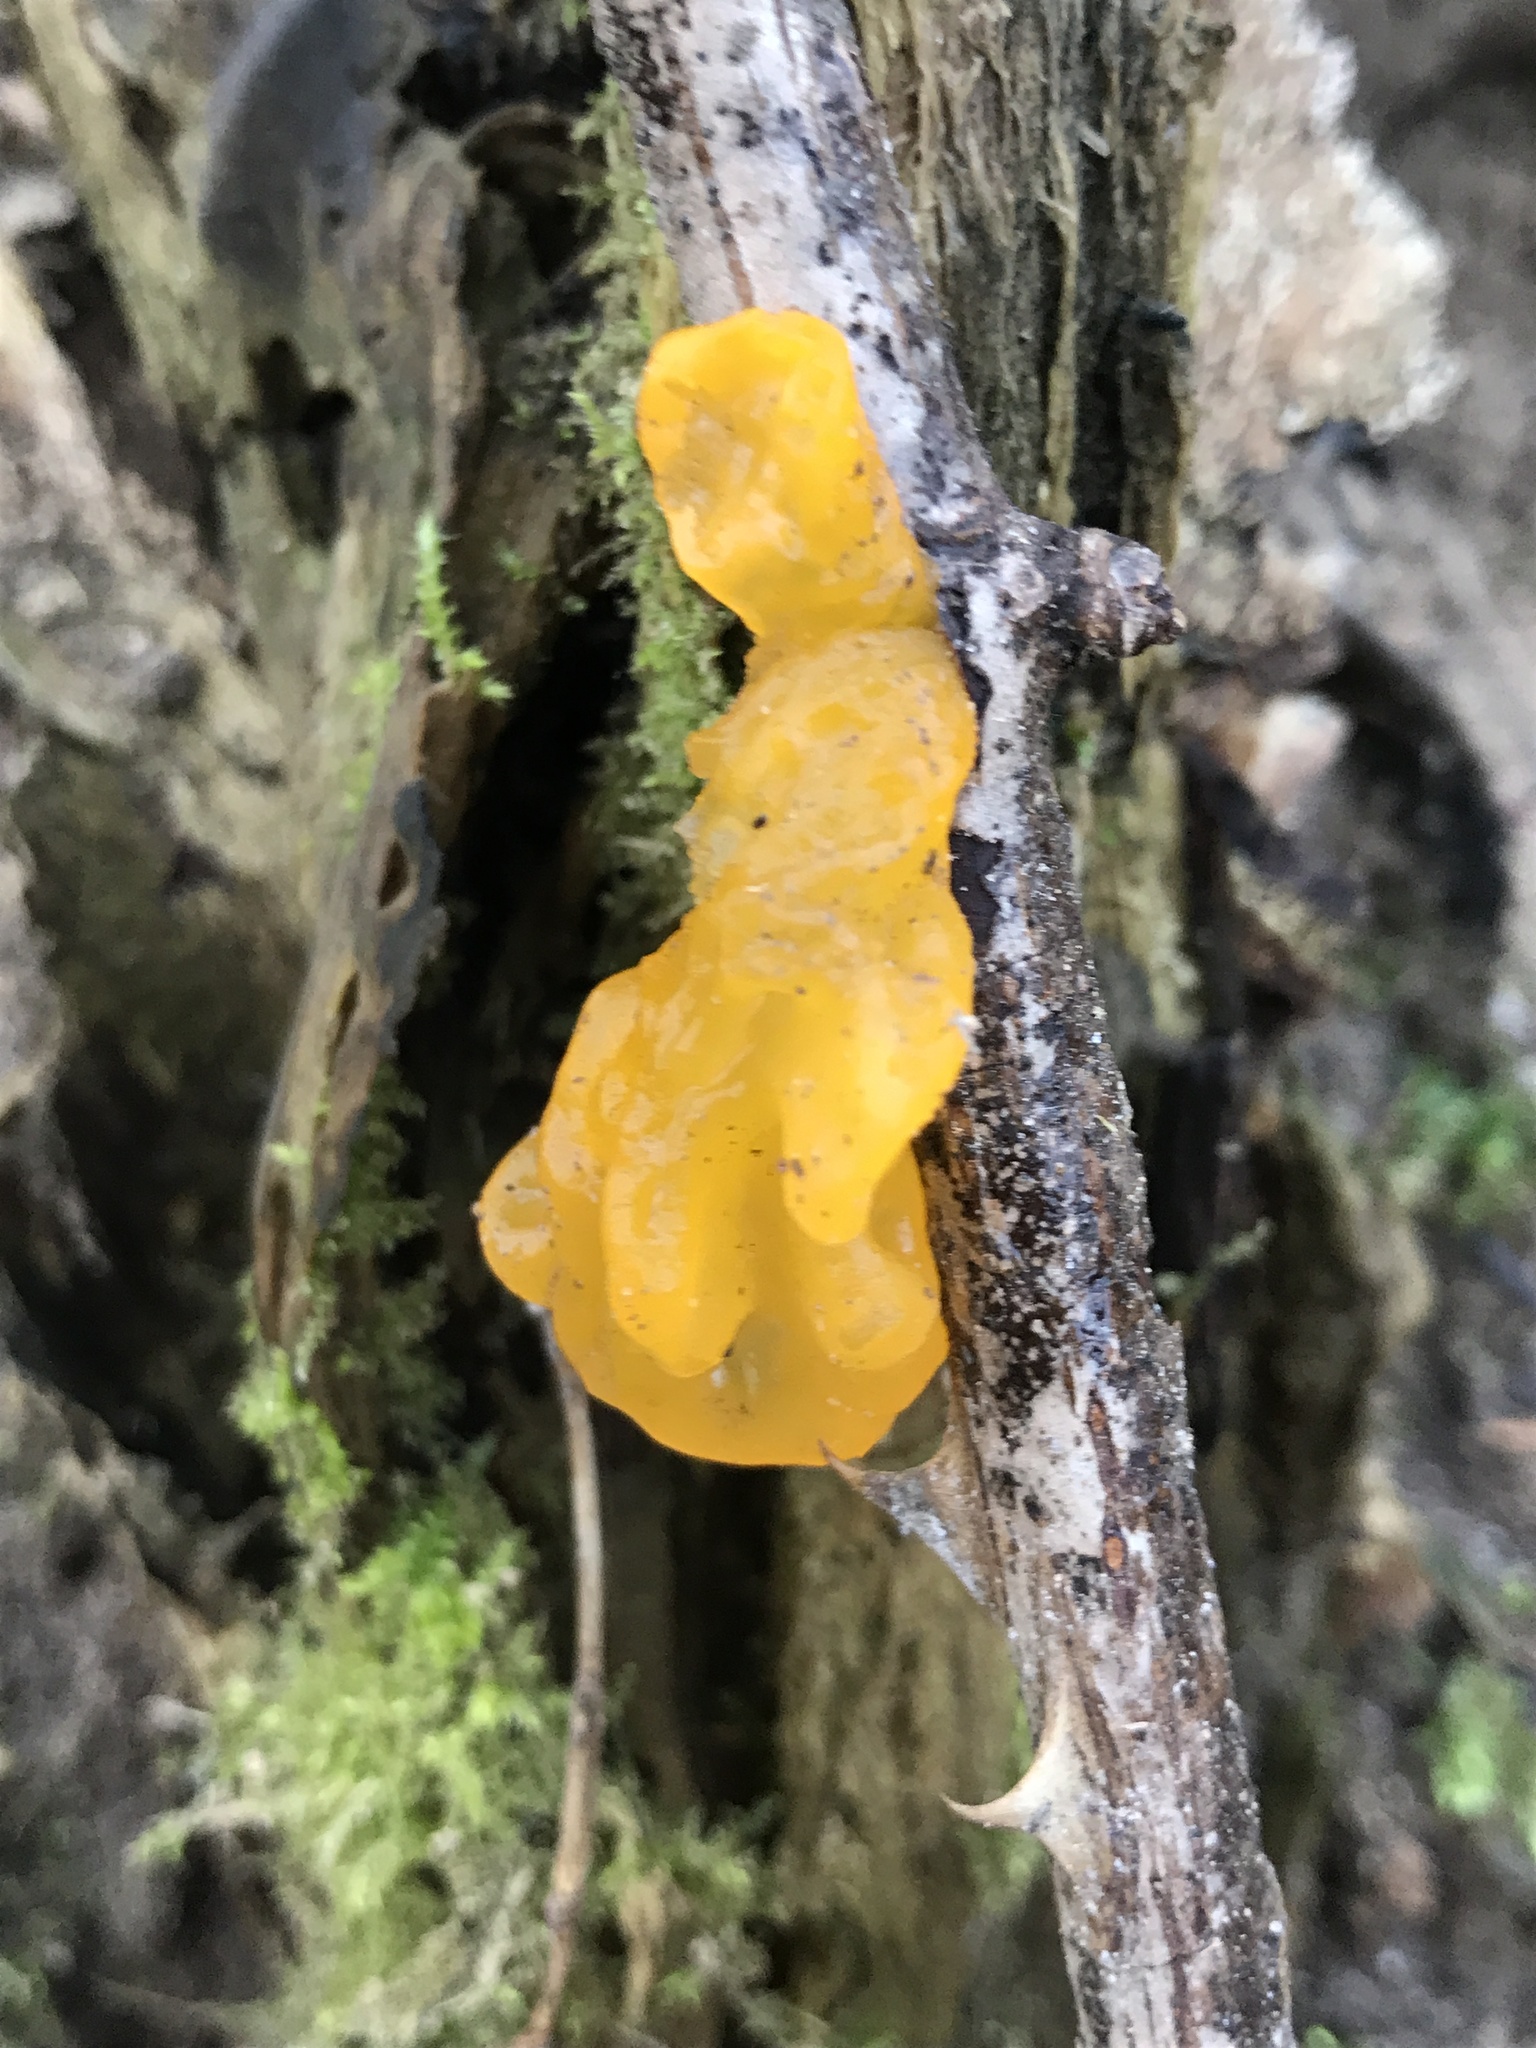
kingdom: Fungi
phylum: Basidiomycota
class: Tremellomycetes
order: Tremellales
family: Tremellaceae
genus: Tremella
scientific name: Tremella mesenterica
